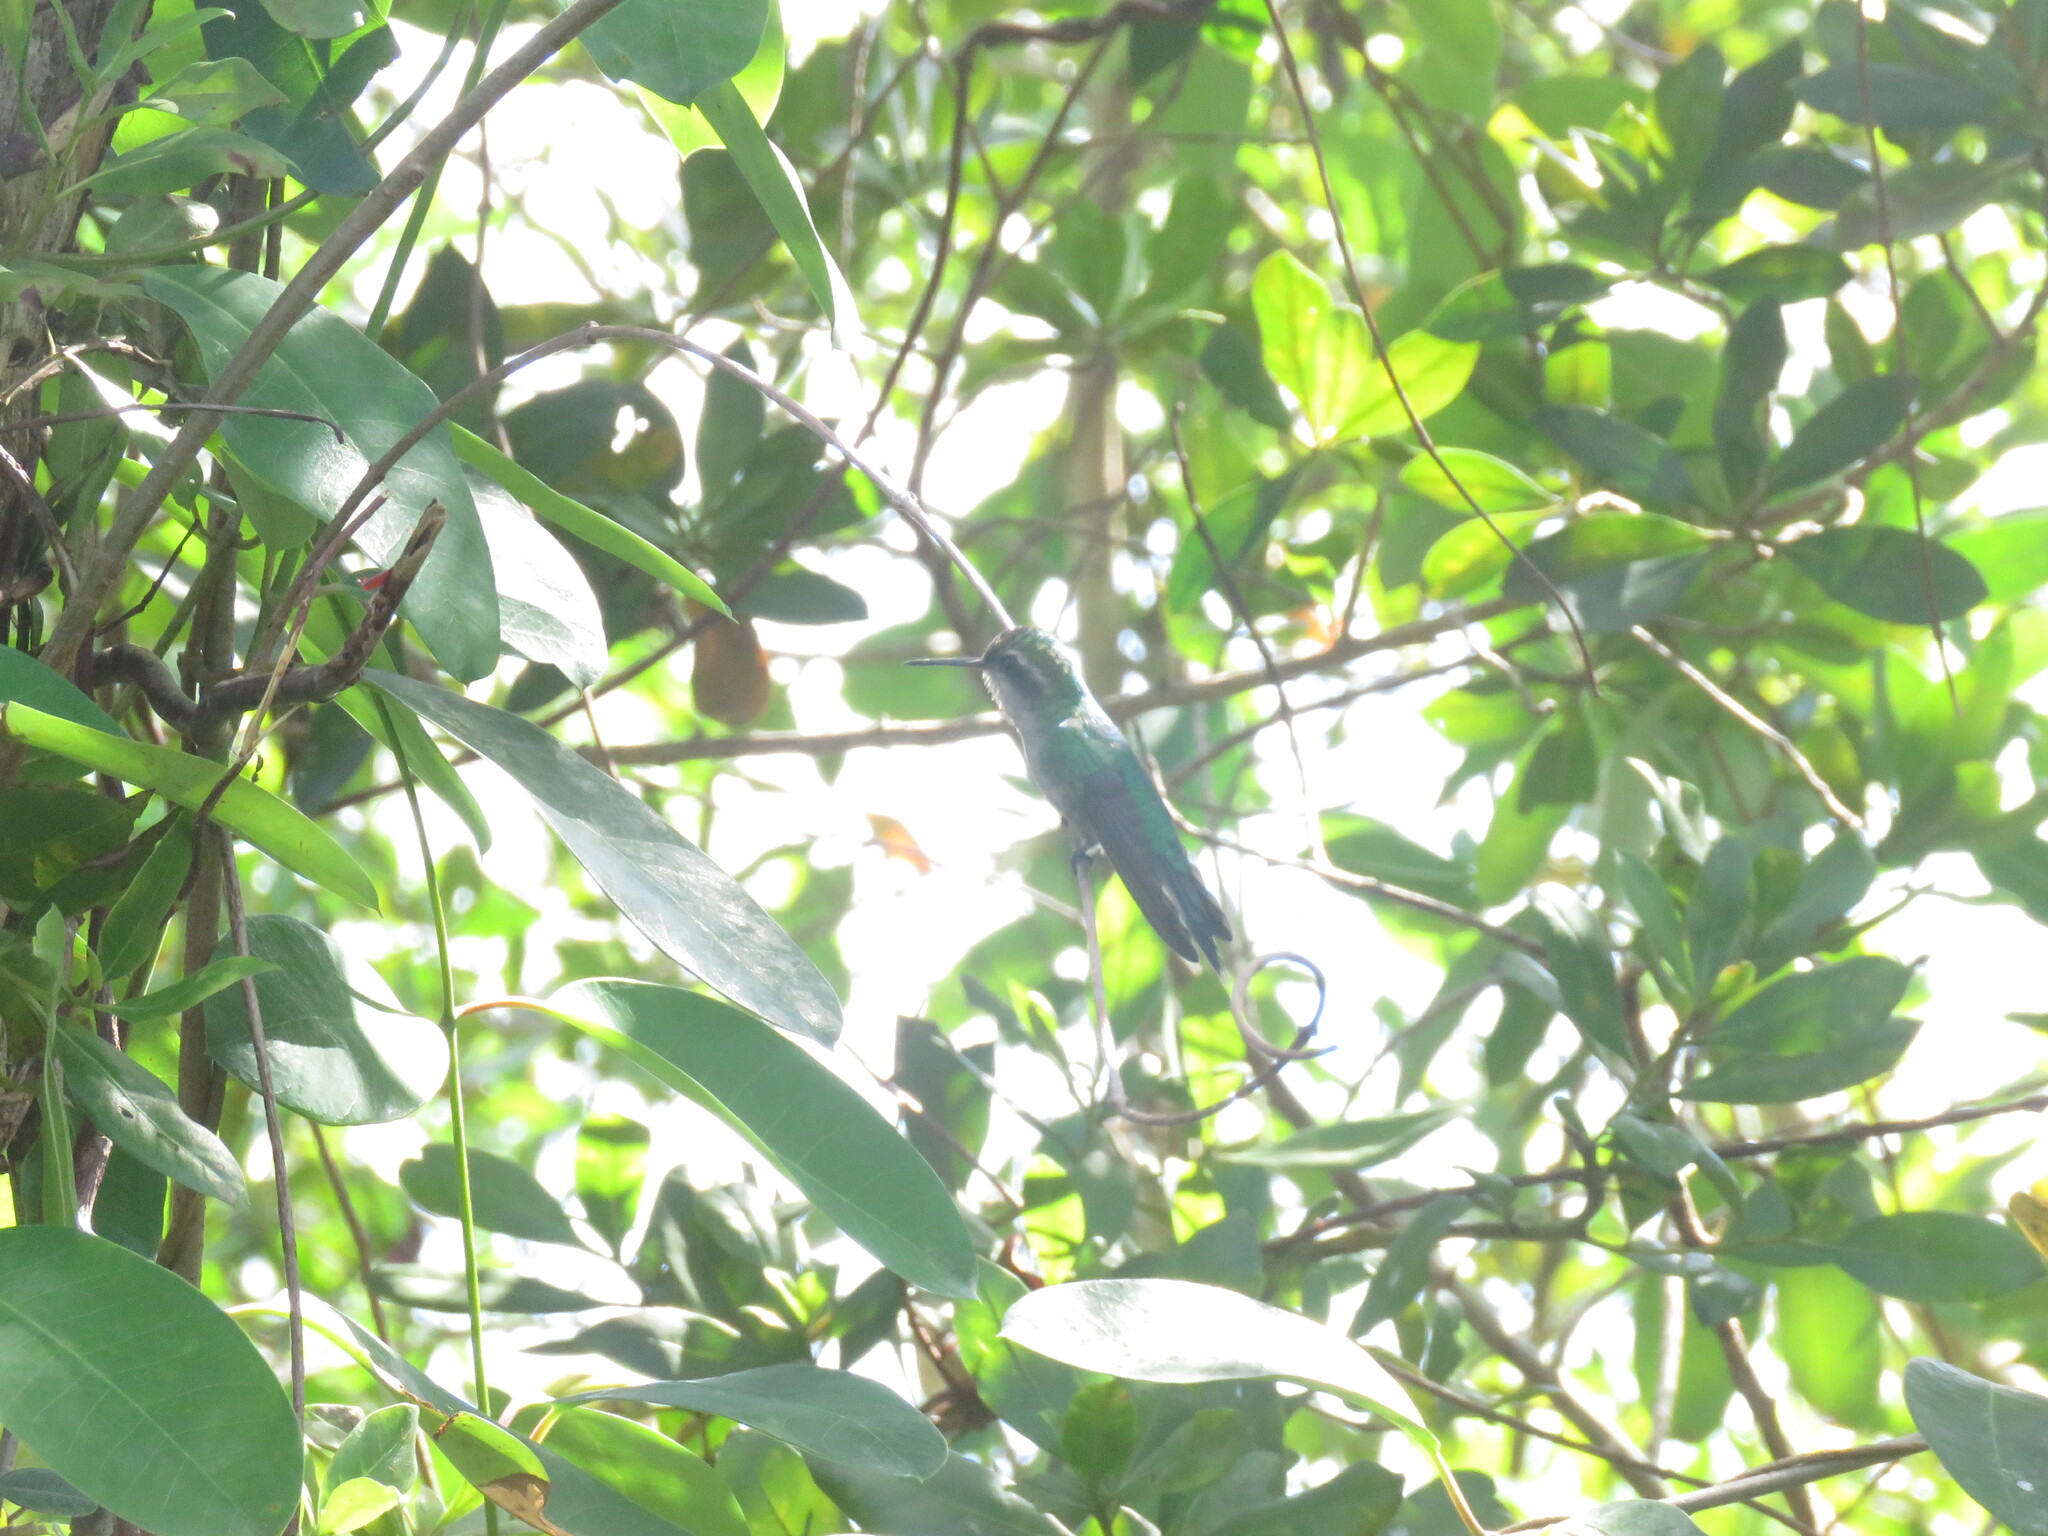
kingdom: Animalia
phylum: Chordata
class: Aves
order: Apodiformes
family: Trochilidae
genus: Cynanthus
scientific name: Cynanthus forficatus
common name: Cozumel emerald
